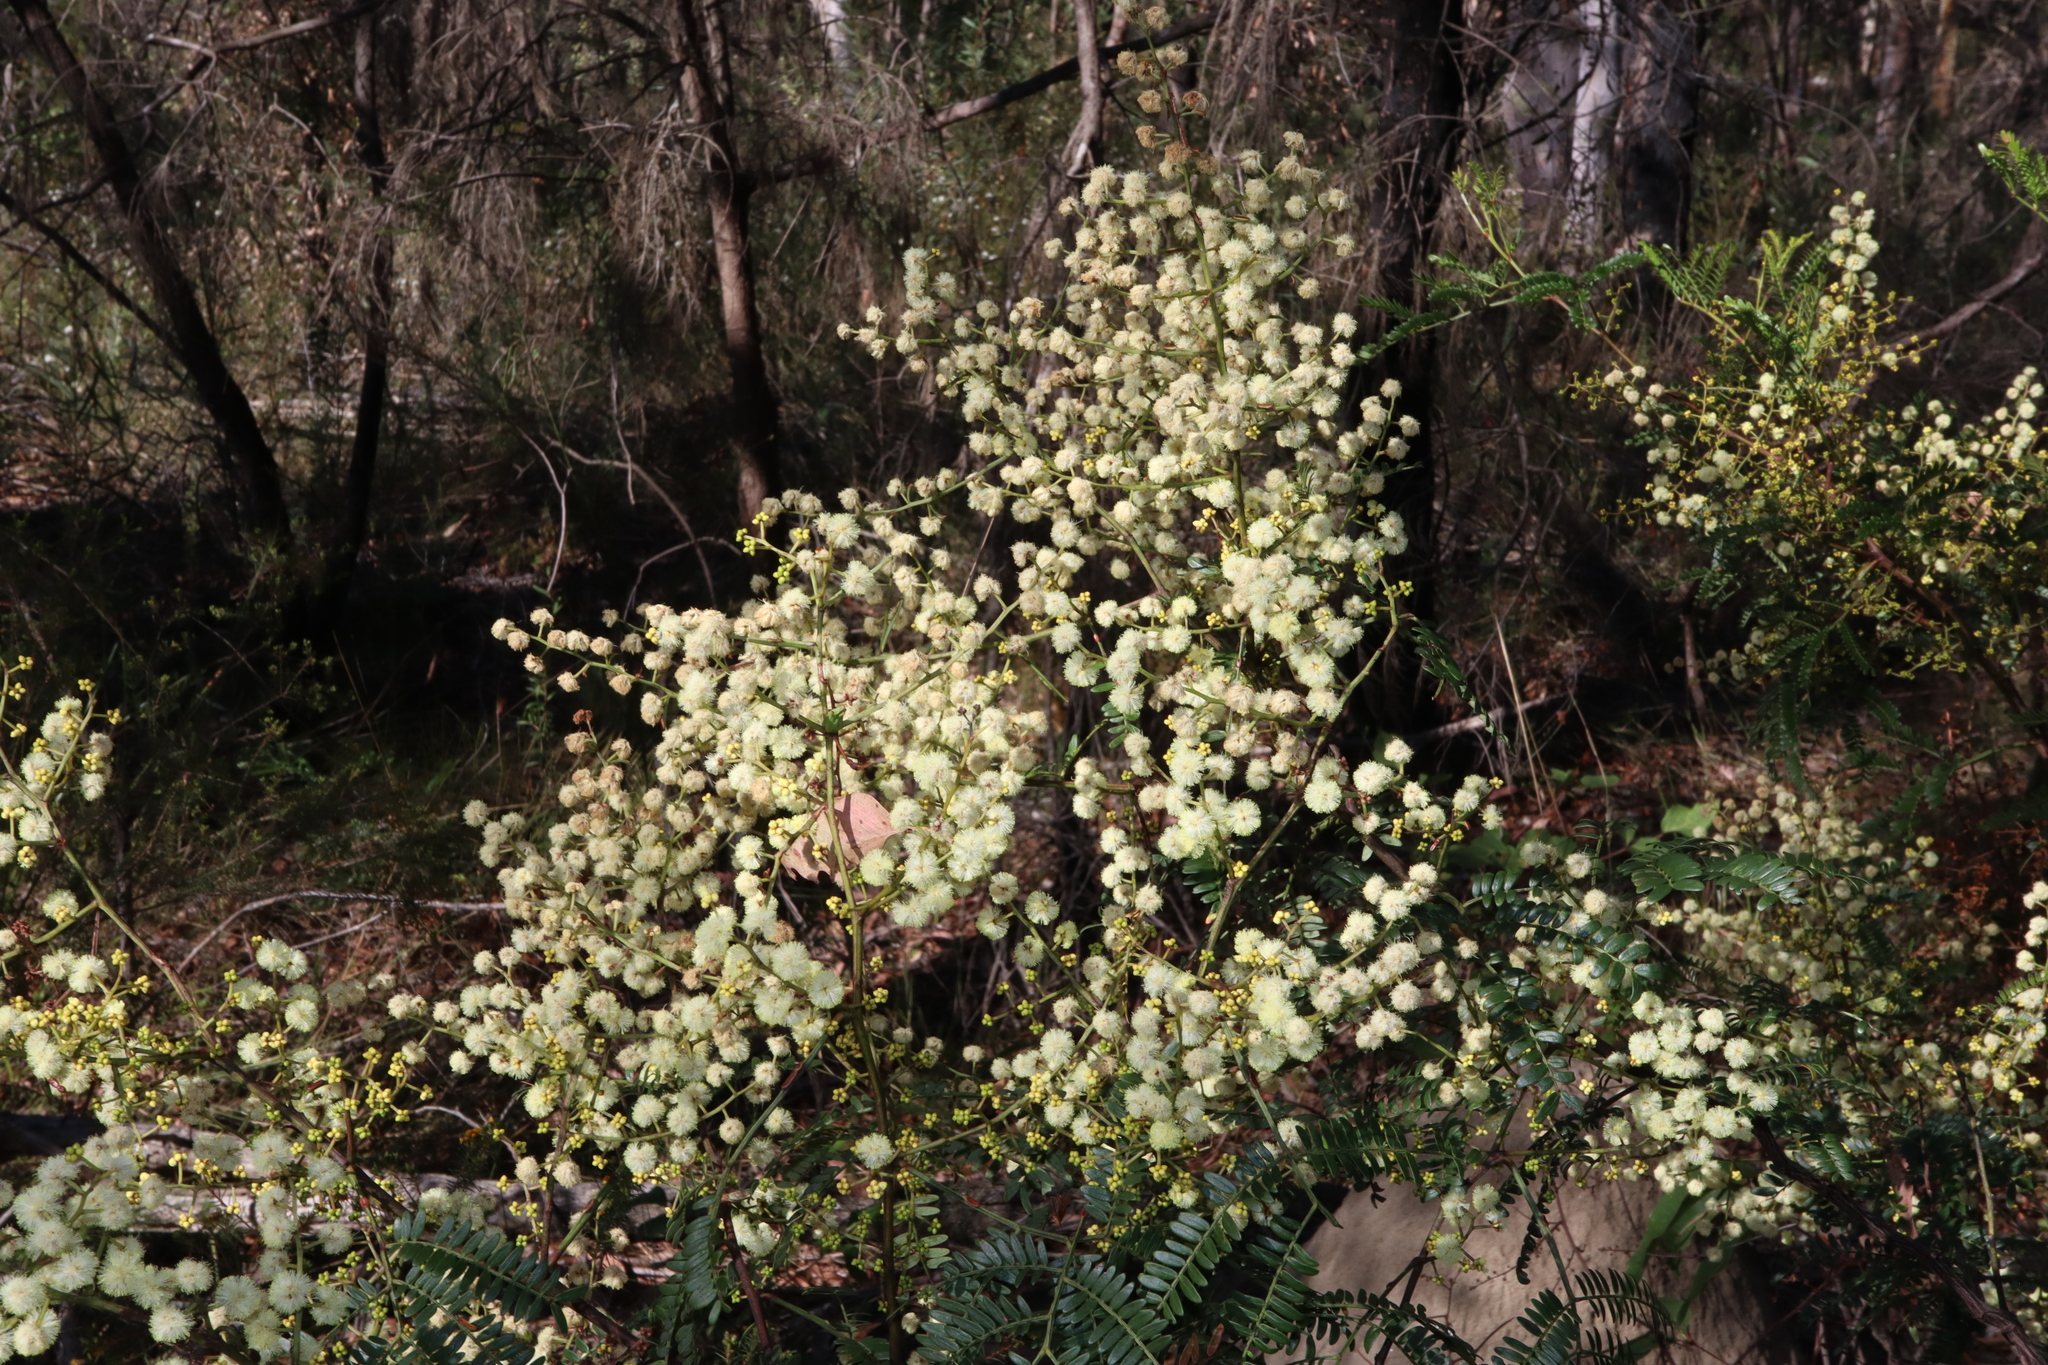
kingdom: Plantae
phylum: Tracheophyta
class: Magnoliopsida
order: Fabales
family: Fabaceae
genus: Acacia
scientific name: Acacia terminalis
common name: Cedar wattle
